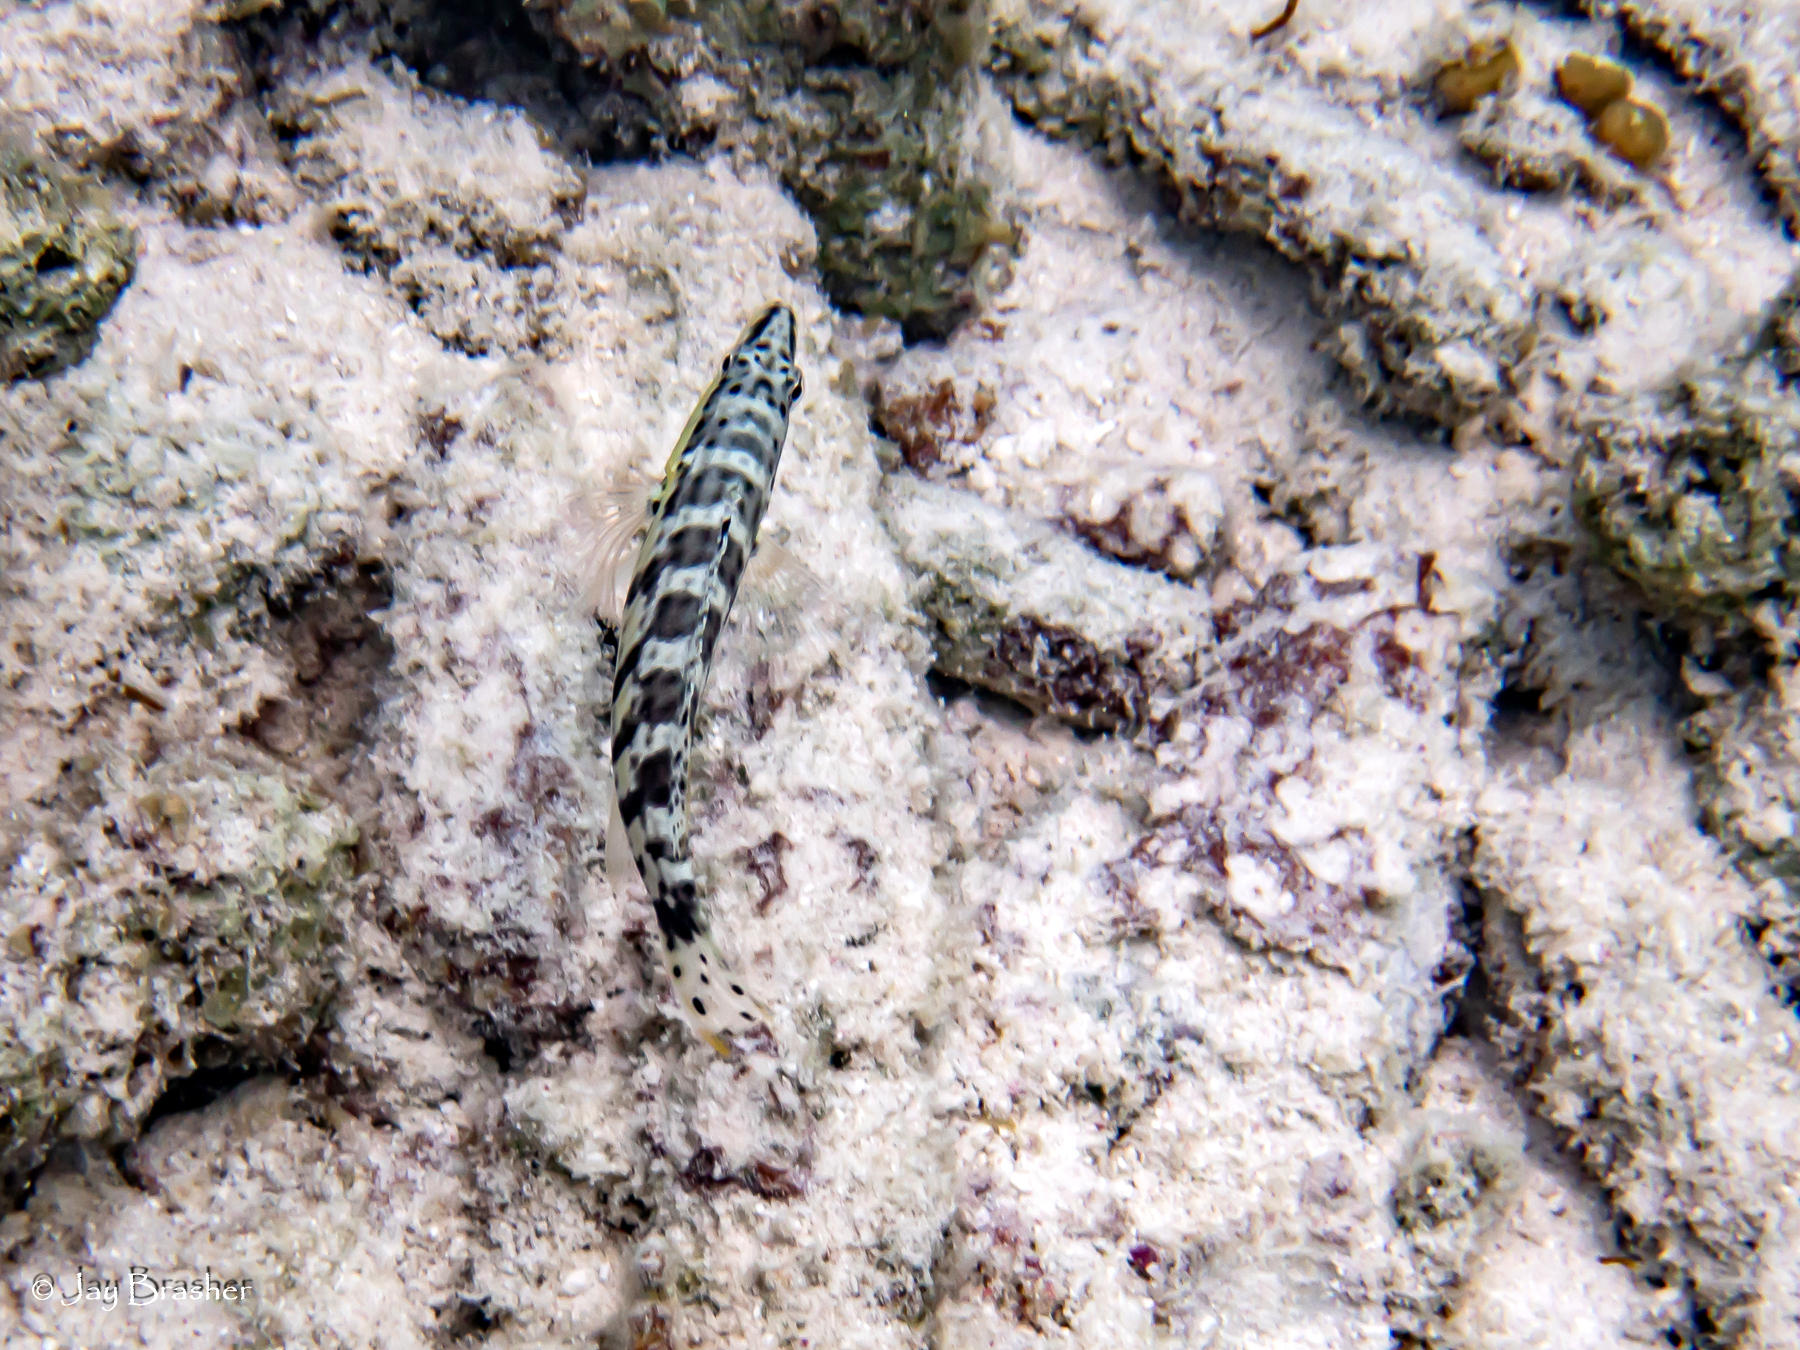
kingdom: Animalia
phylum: Chordata
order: Perciformes
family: Serranidae
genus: Serranus
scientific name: Serranus tigrinus
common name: Harlequin bass
